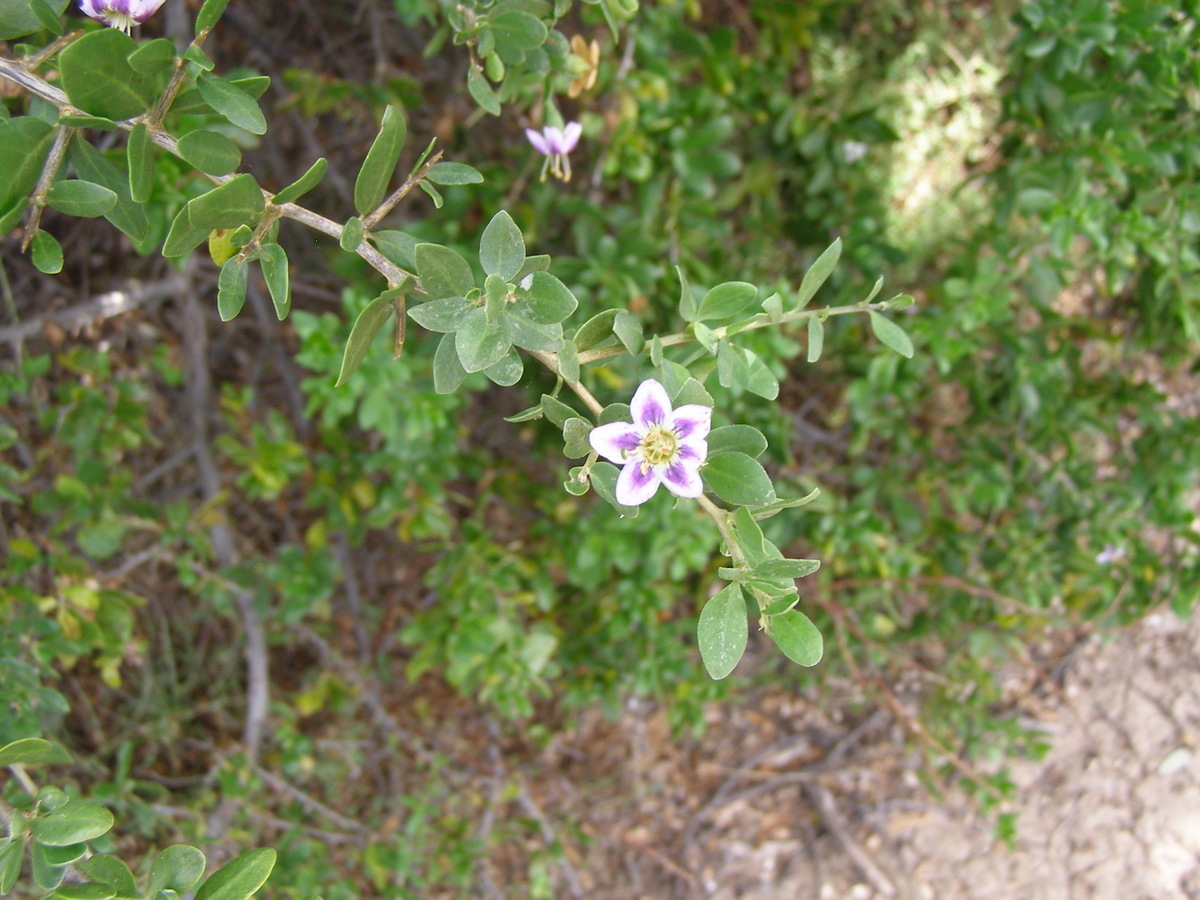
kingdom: Plantae
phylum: Tracheophyta
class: Magnoliopsida
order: Solanales
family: Solanaceae
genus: Lycium
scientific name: Lycium ferocissimum
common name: African boxthorn
